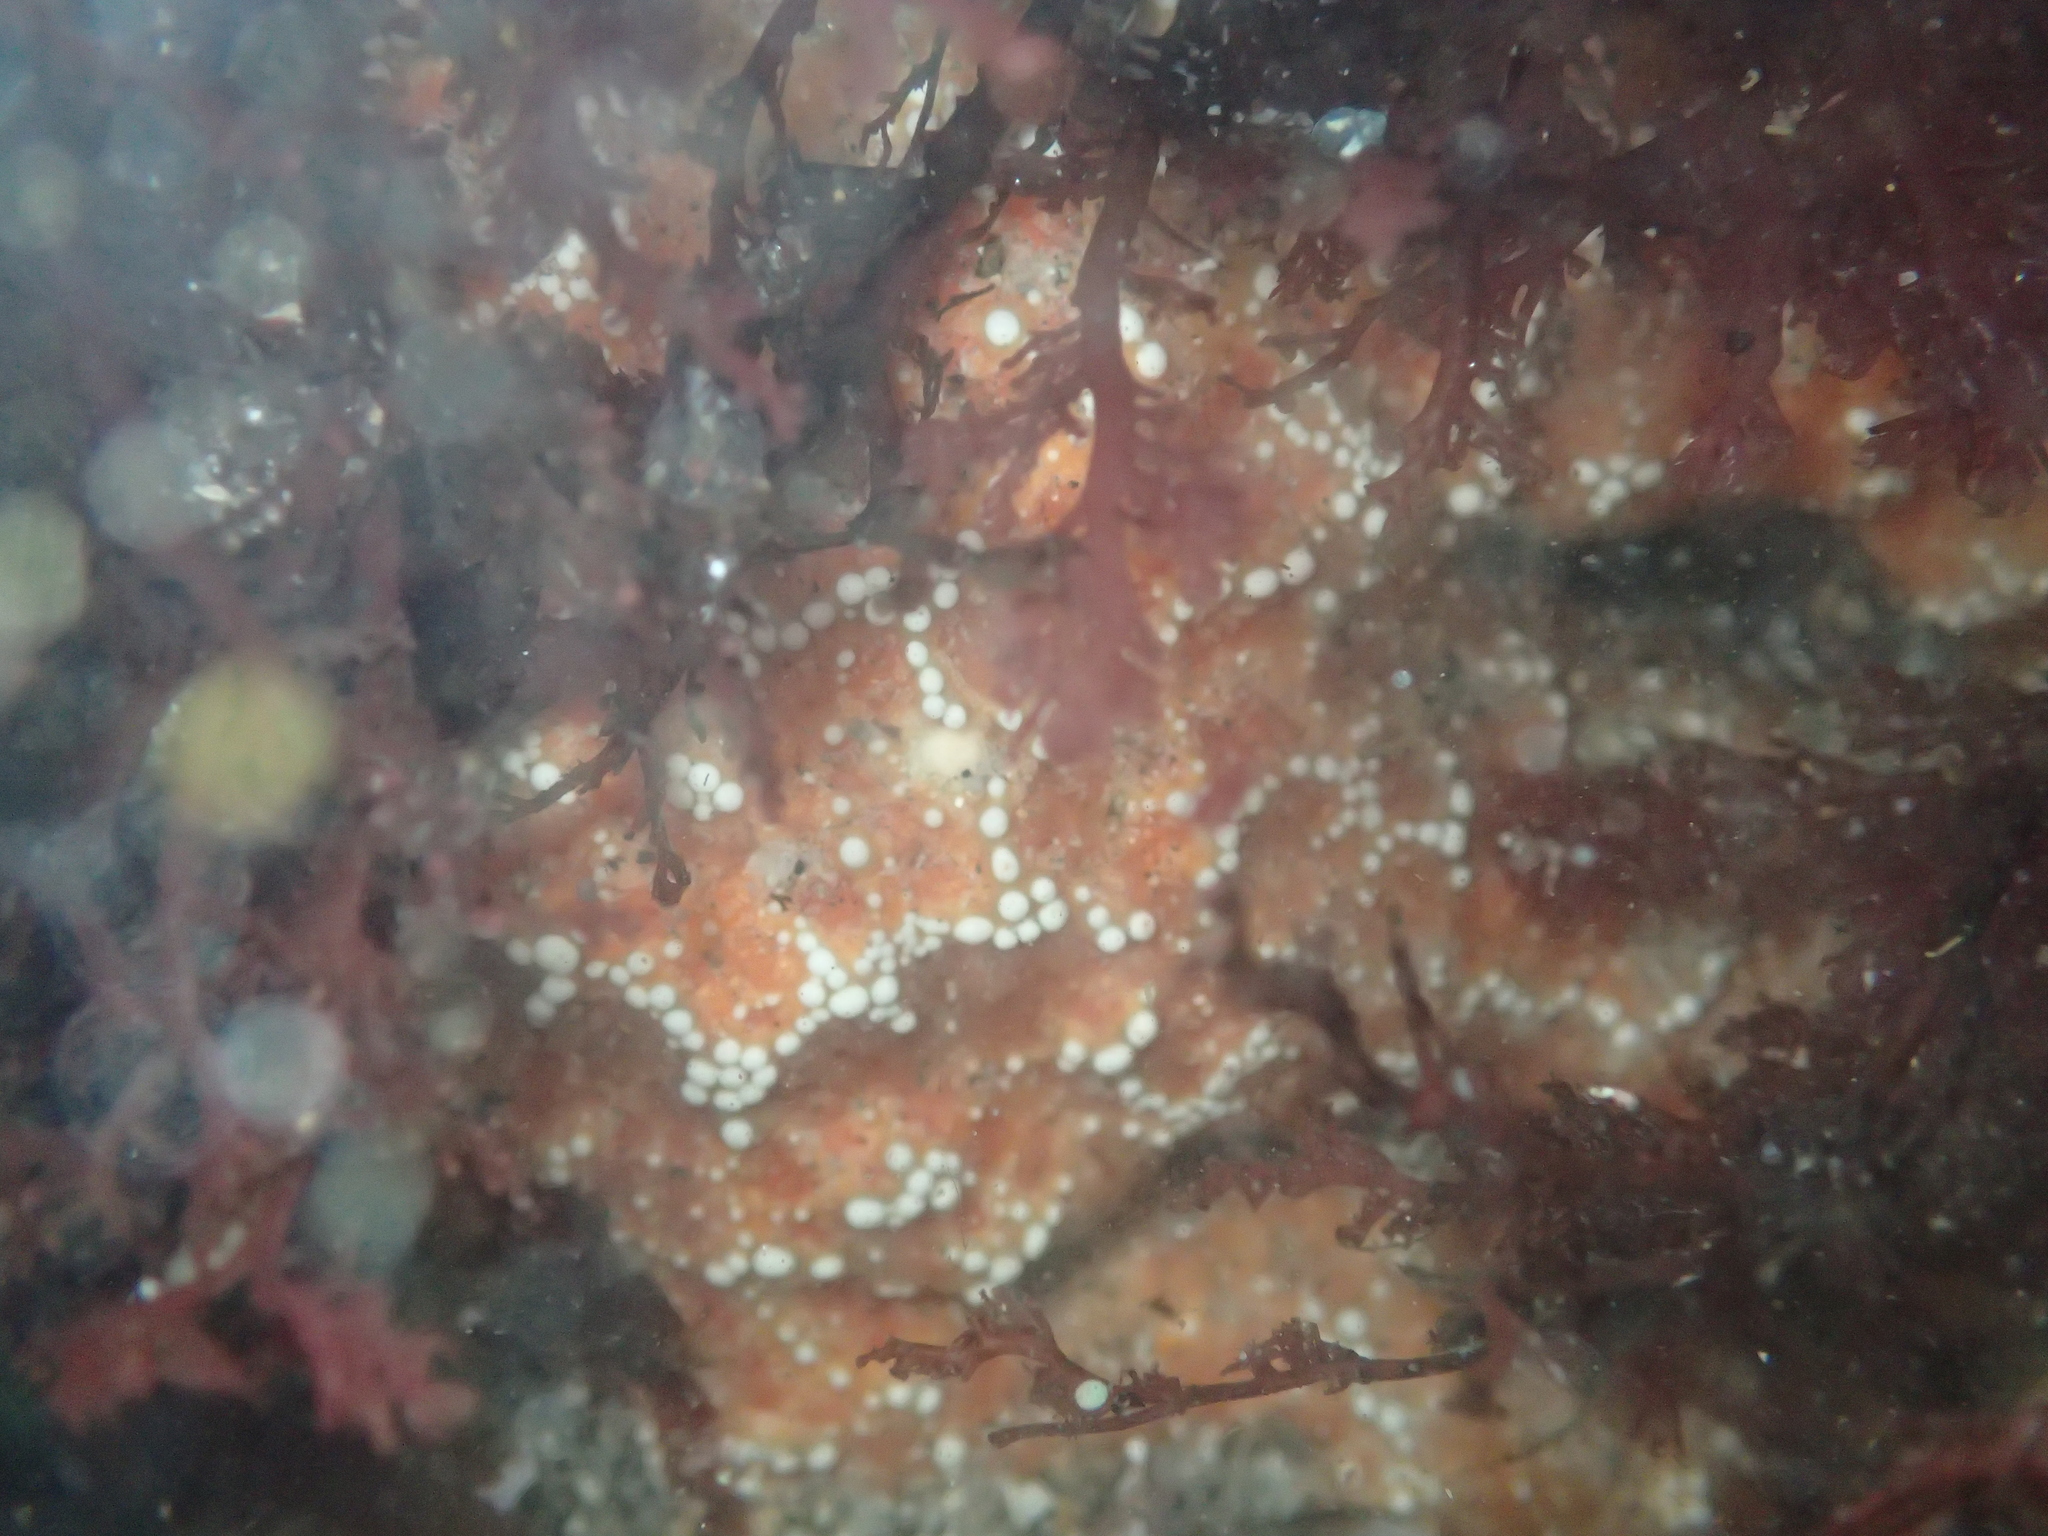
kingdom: Animalia
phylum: Echinodermata
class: Asteroidea
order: Forcipulatida
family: Asteriidae
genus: Pisaster
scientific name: Pisaster ochraceus
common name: Ochre stars
